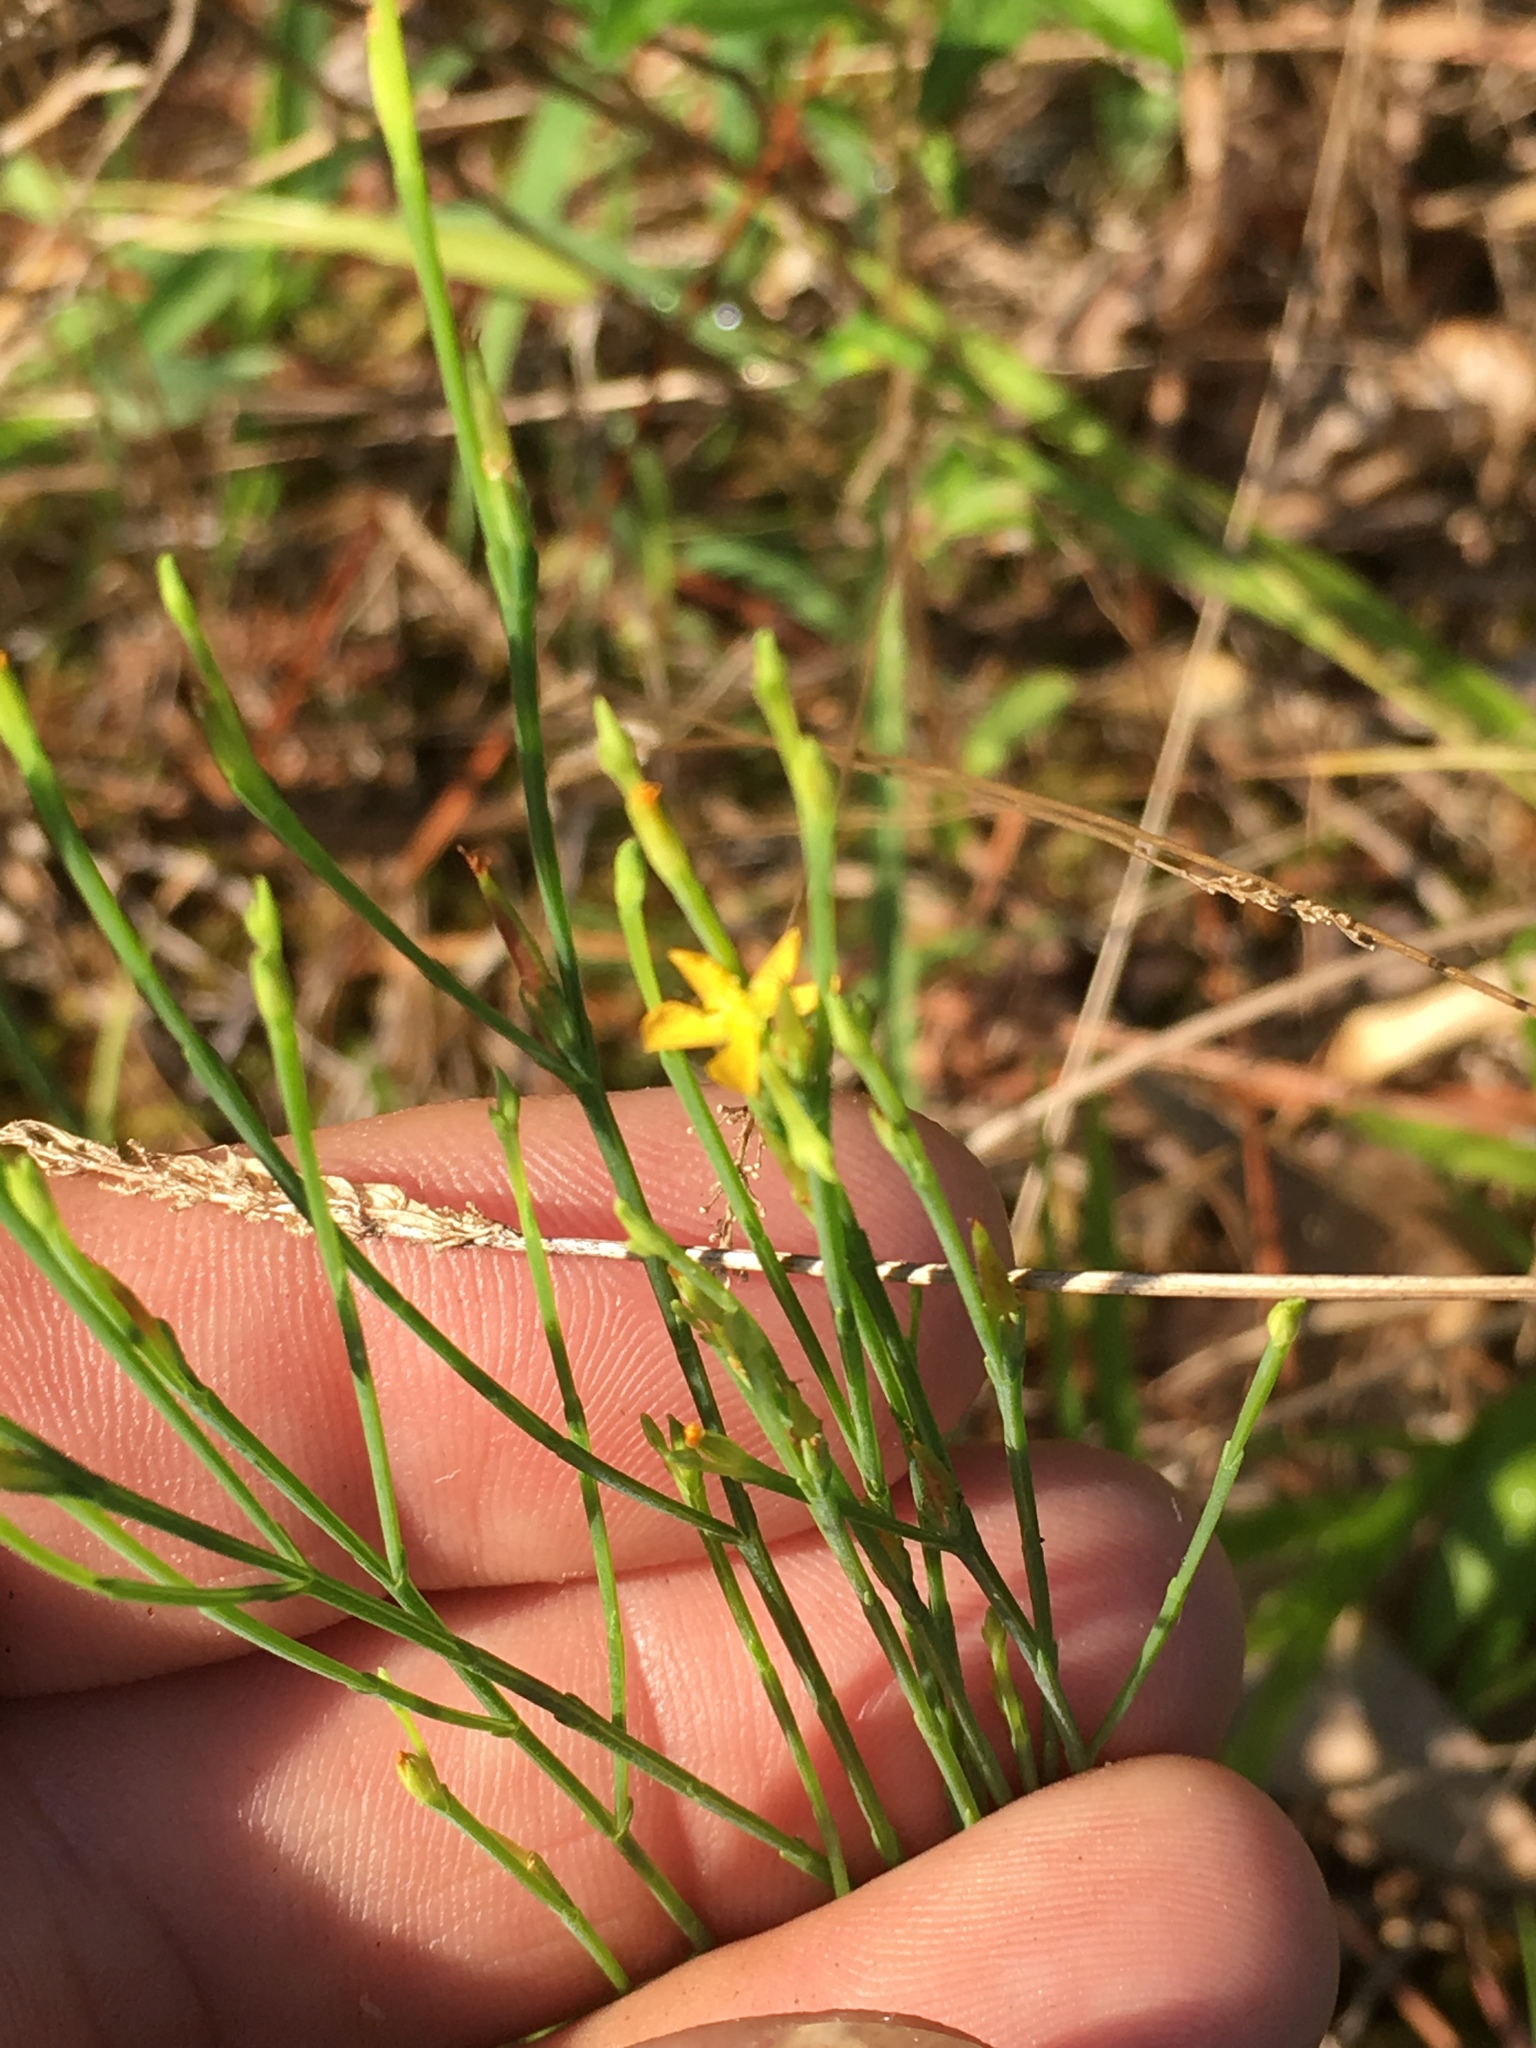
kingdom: Plantae
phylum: Tracheophyta
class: Magnoliopsida
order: Malpighiales
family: Hypericaceae
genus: Hypericum
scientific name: Hypericum gentianoides
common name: Gentian-leaved st. john's-wort
